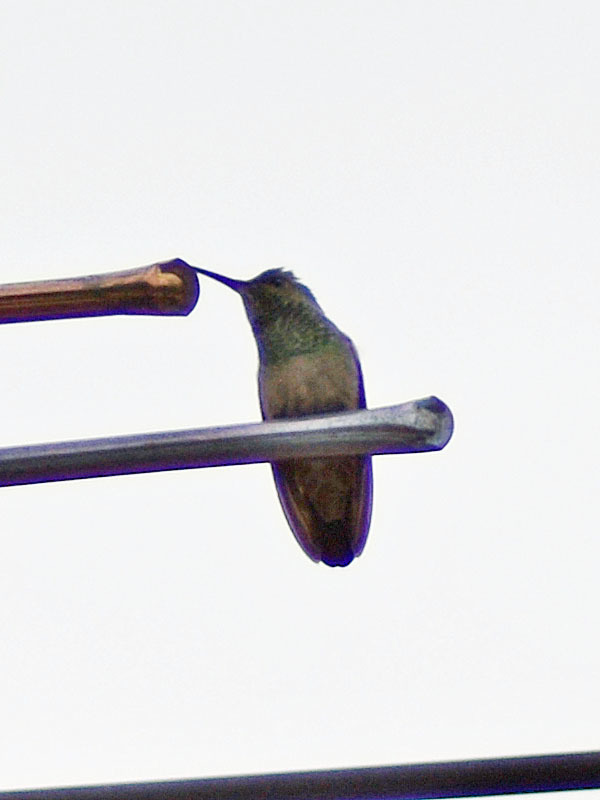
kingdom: Animalia
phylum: Chordata
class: Aves
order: Apodiformes
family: Trochilidae
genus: Saucerottia
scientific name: Saucerottia beryllina
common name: Berylline hummingbird
